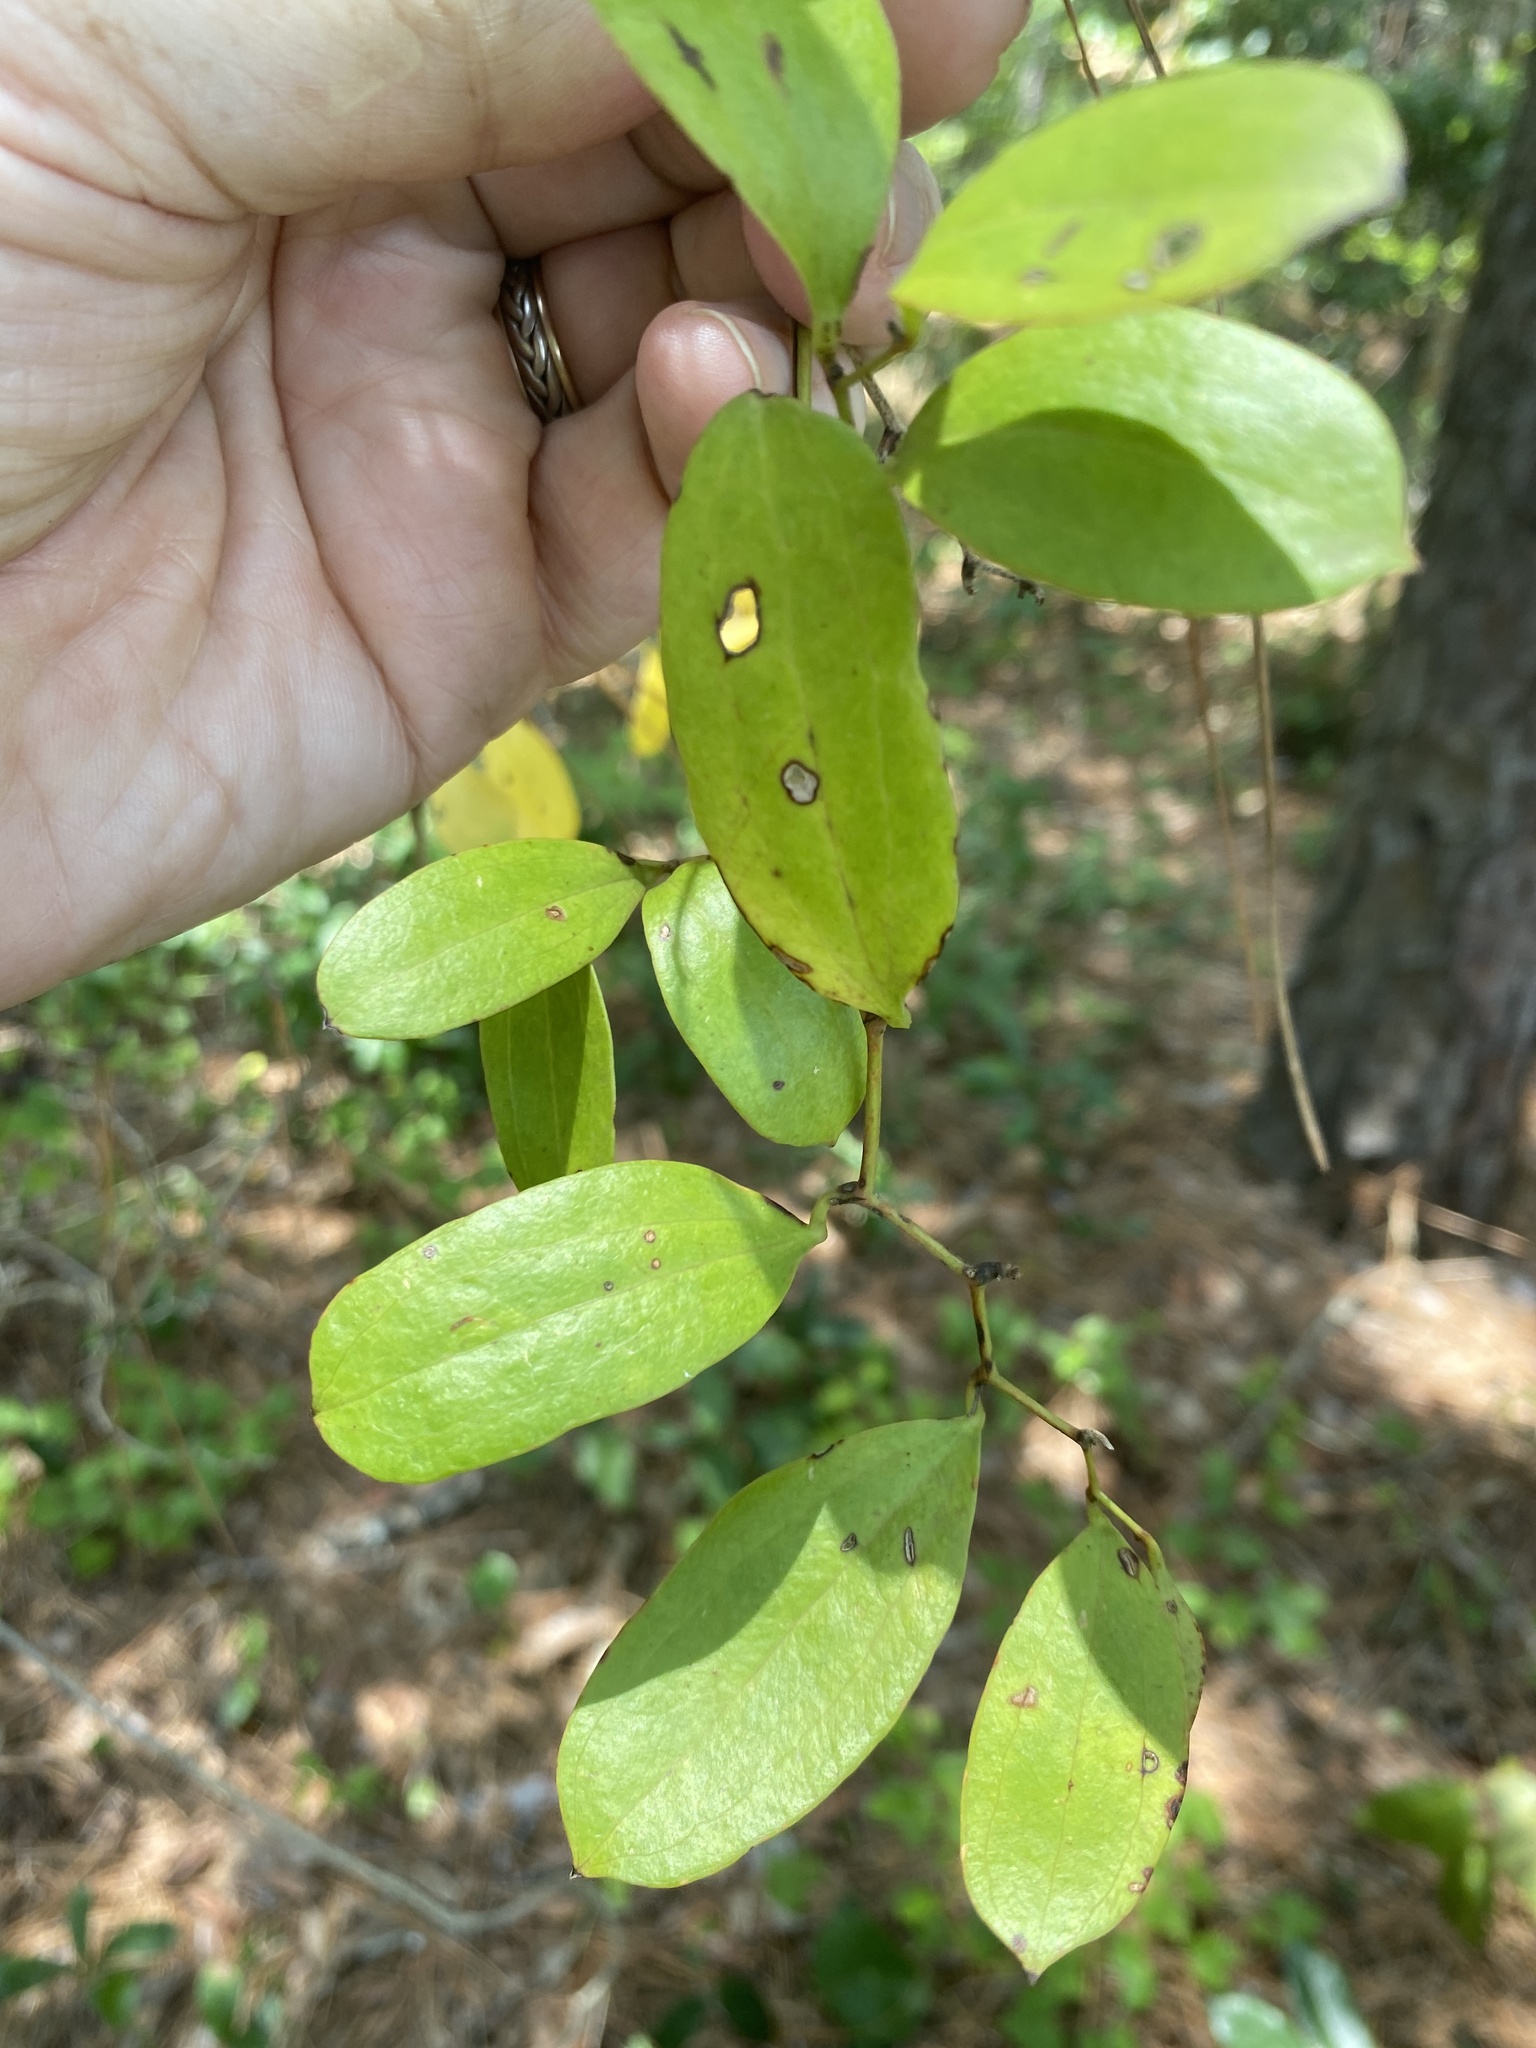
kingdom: Plantae
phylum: Tracheophyta
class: Liliopsida
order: Liliales
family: Smilacaceae
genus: Smilax
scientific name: Smilax auriculata
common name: Wild bamboo
